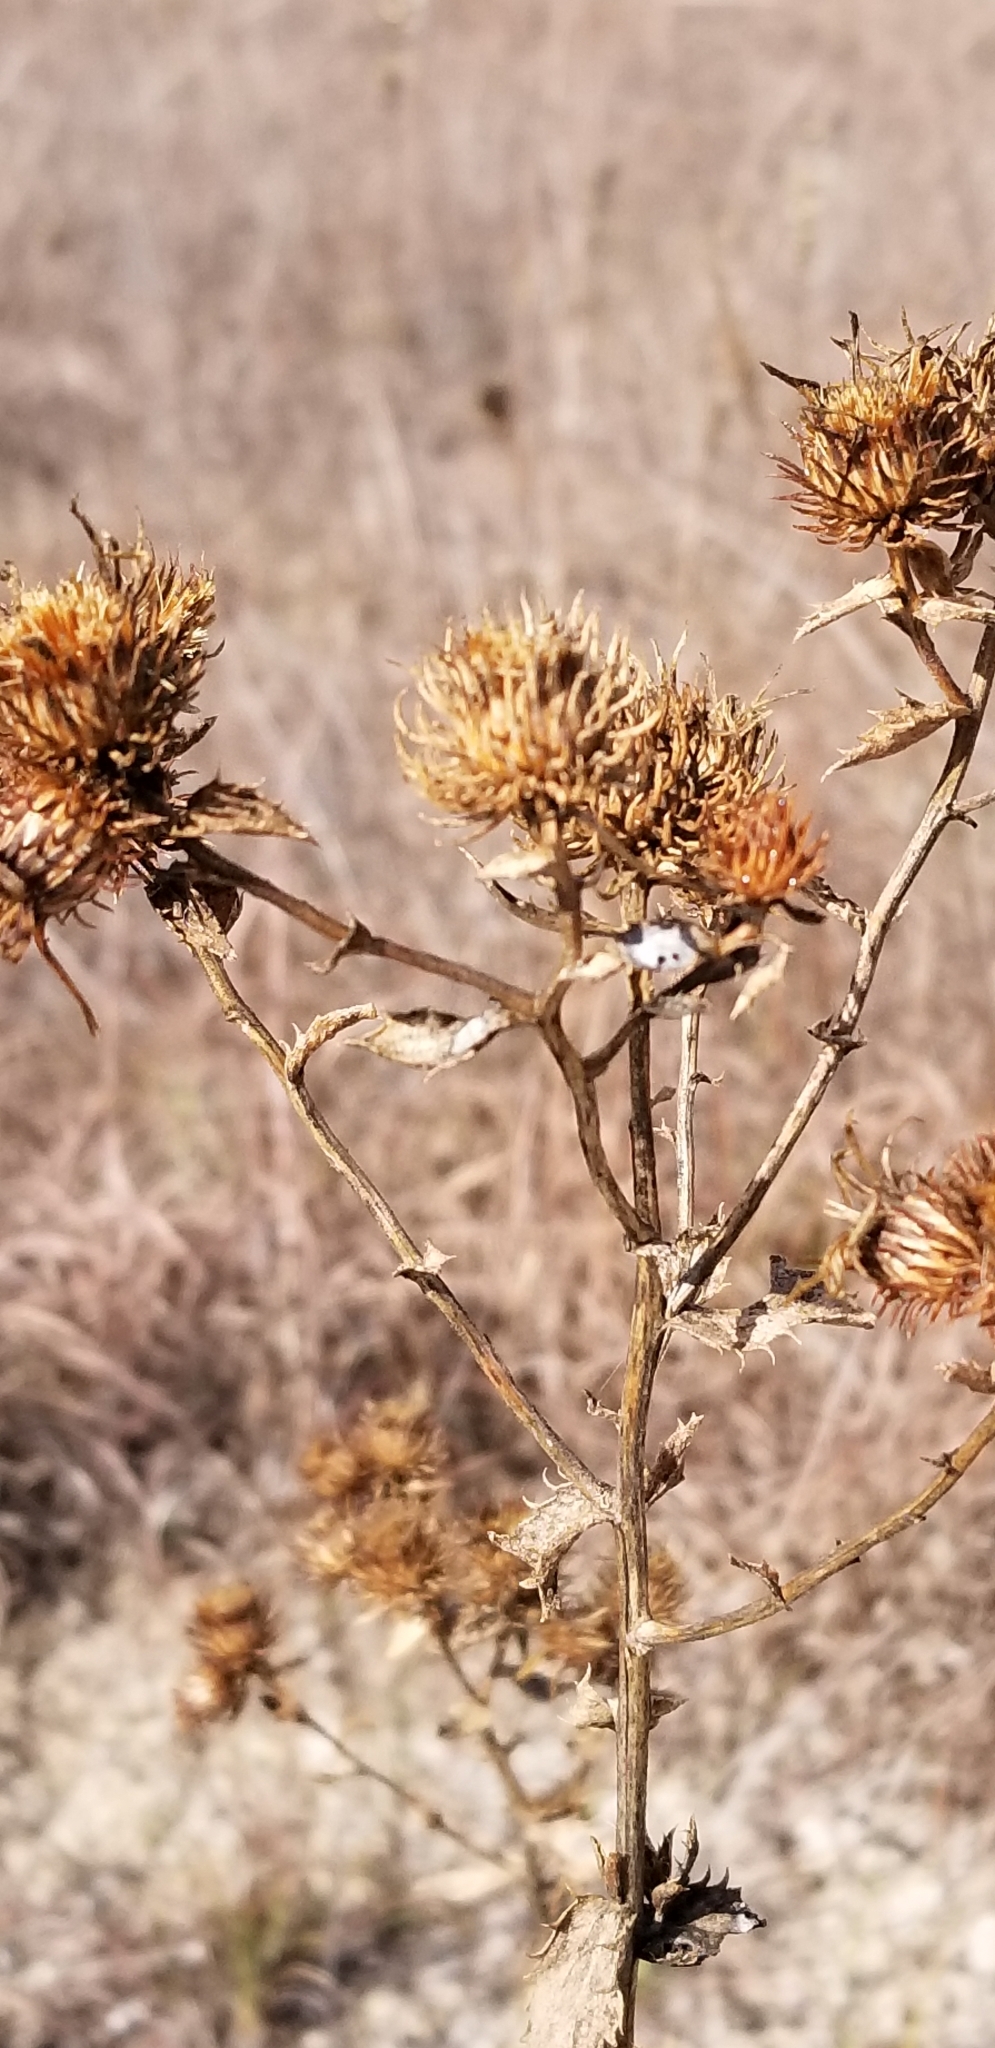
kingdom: Plantae
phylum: Tracheophyta
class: Magnoliopsida
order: Asterales
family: Asteraceae
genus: Grindelia
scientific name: Grindelia lanceolata
